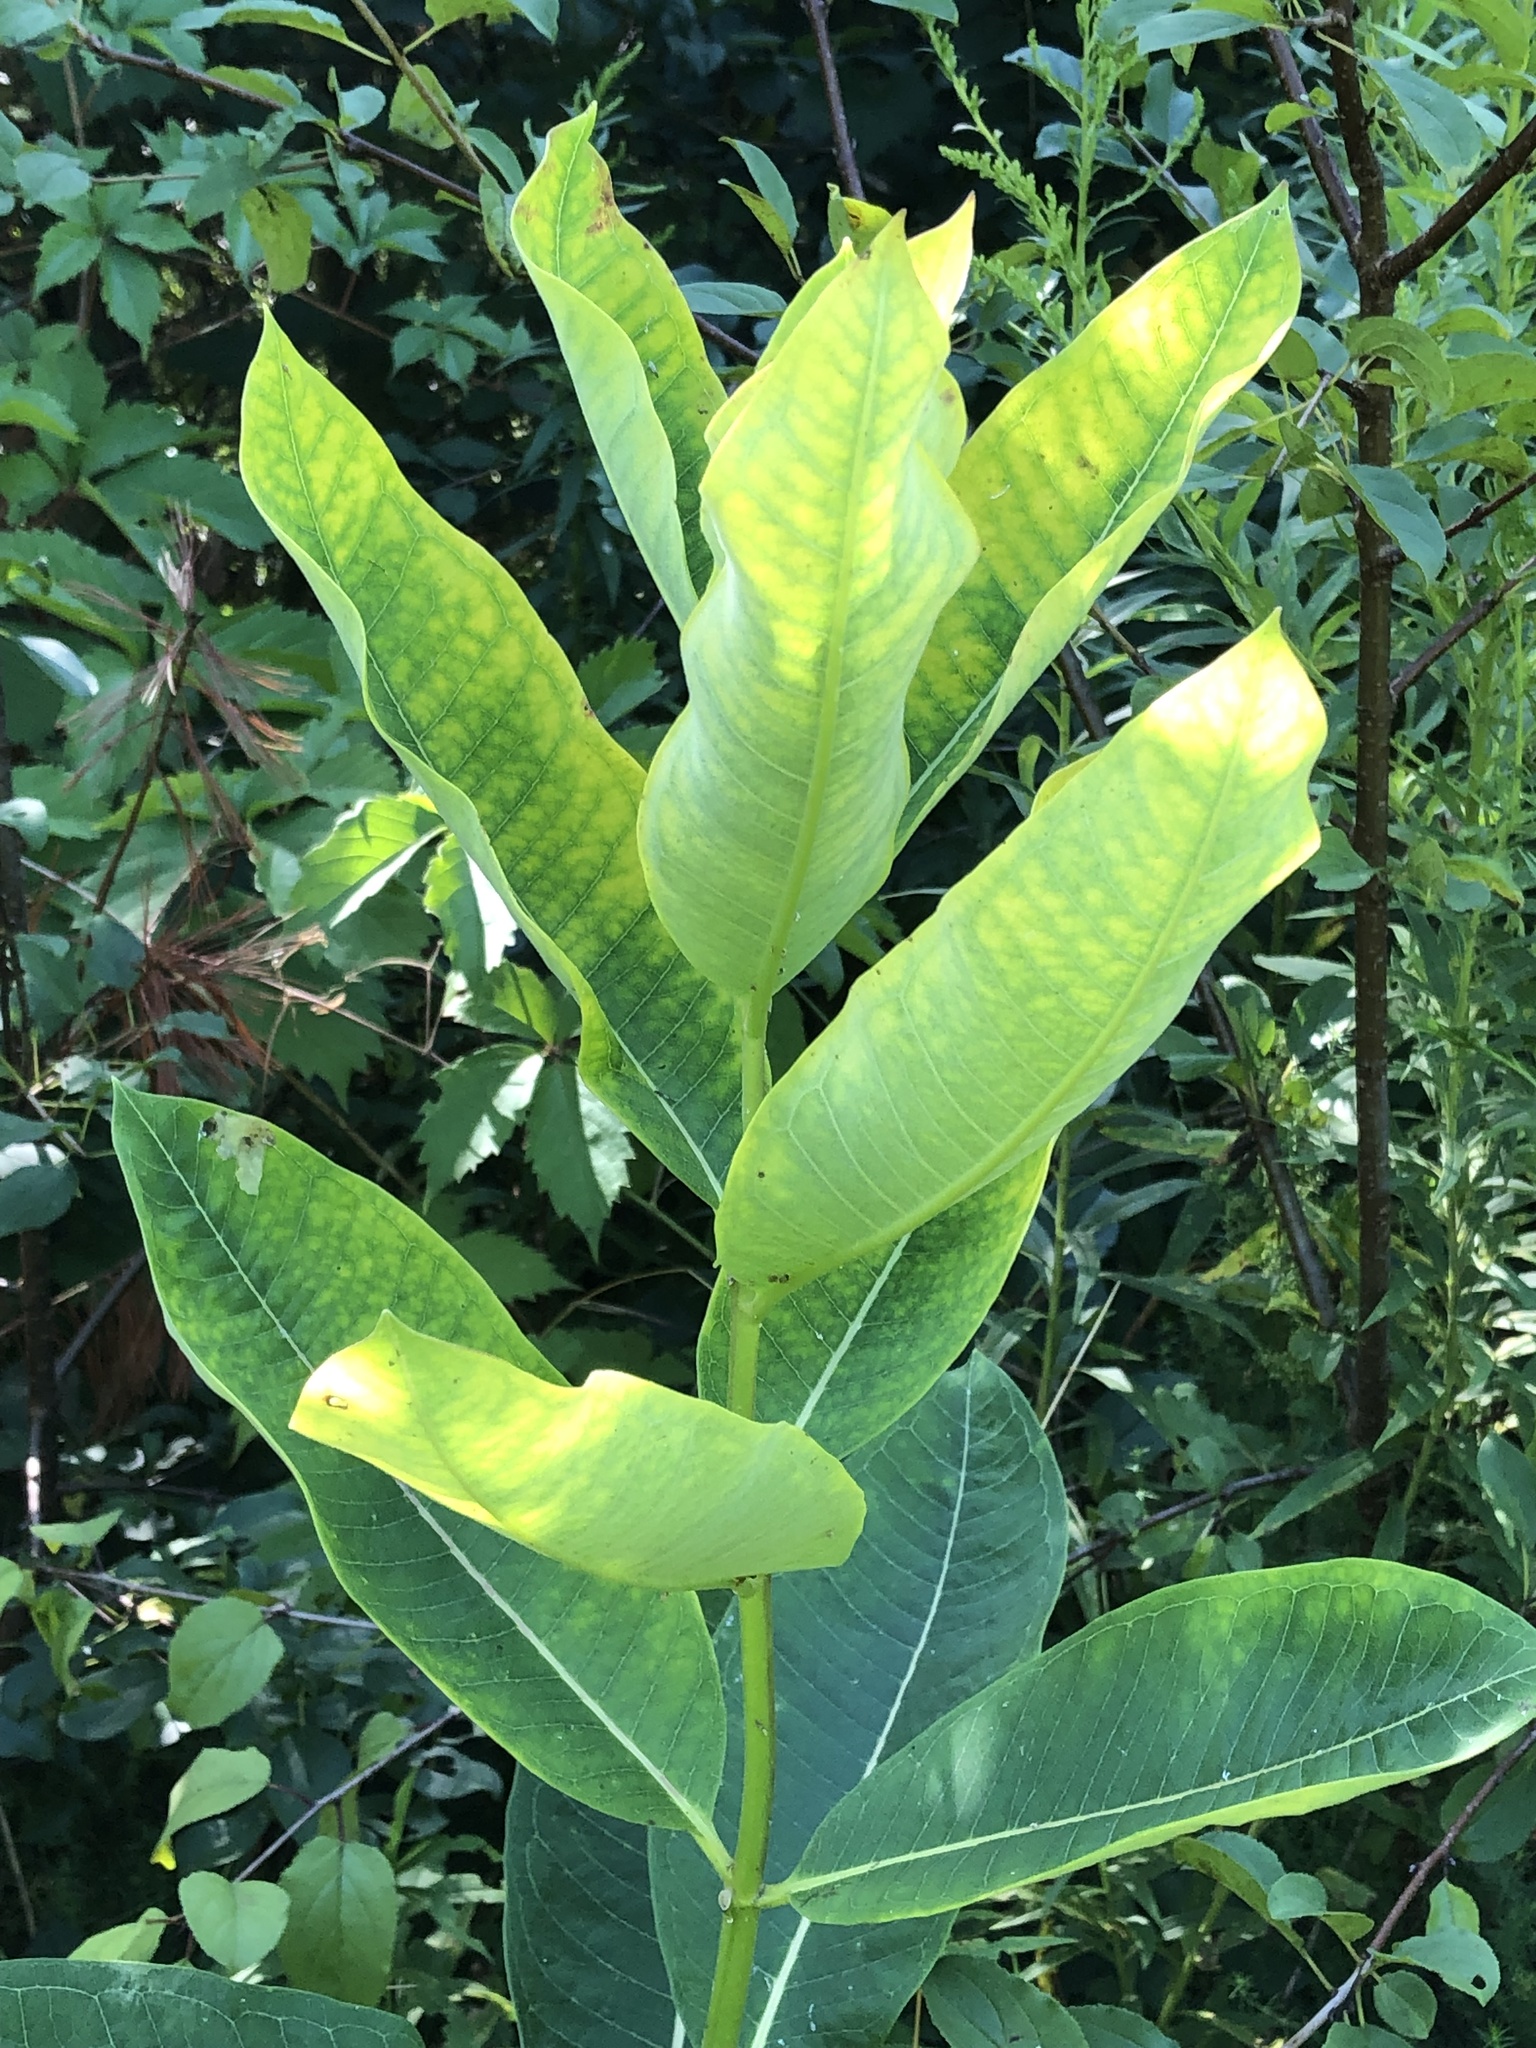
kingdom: Plantae
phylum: Tracheophyta
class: Magnoliopsida
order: Gentianales
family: Apocynaceae
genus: Asclepias
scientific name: Asclepias syriaca
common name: Common milkweed
